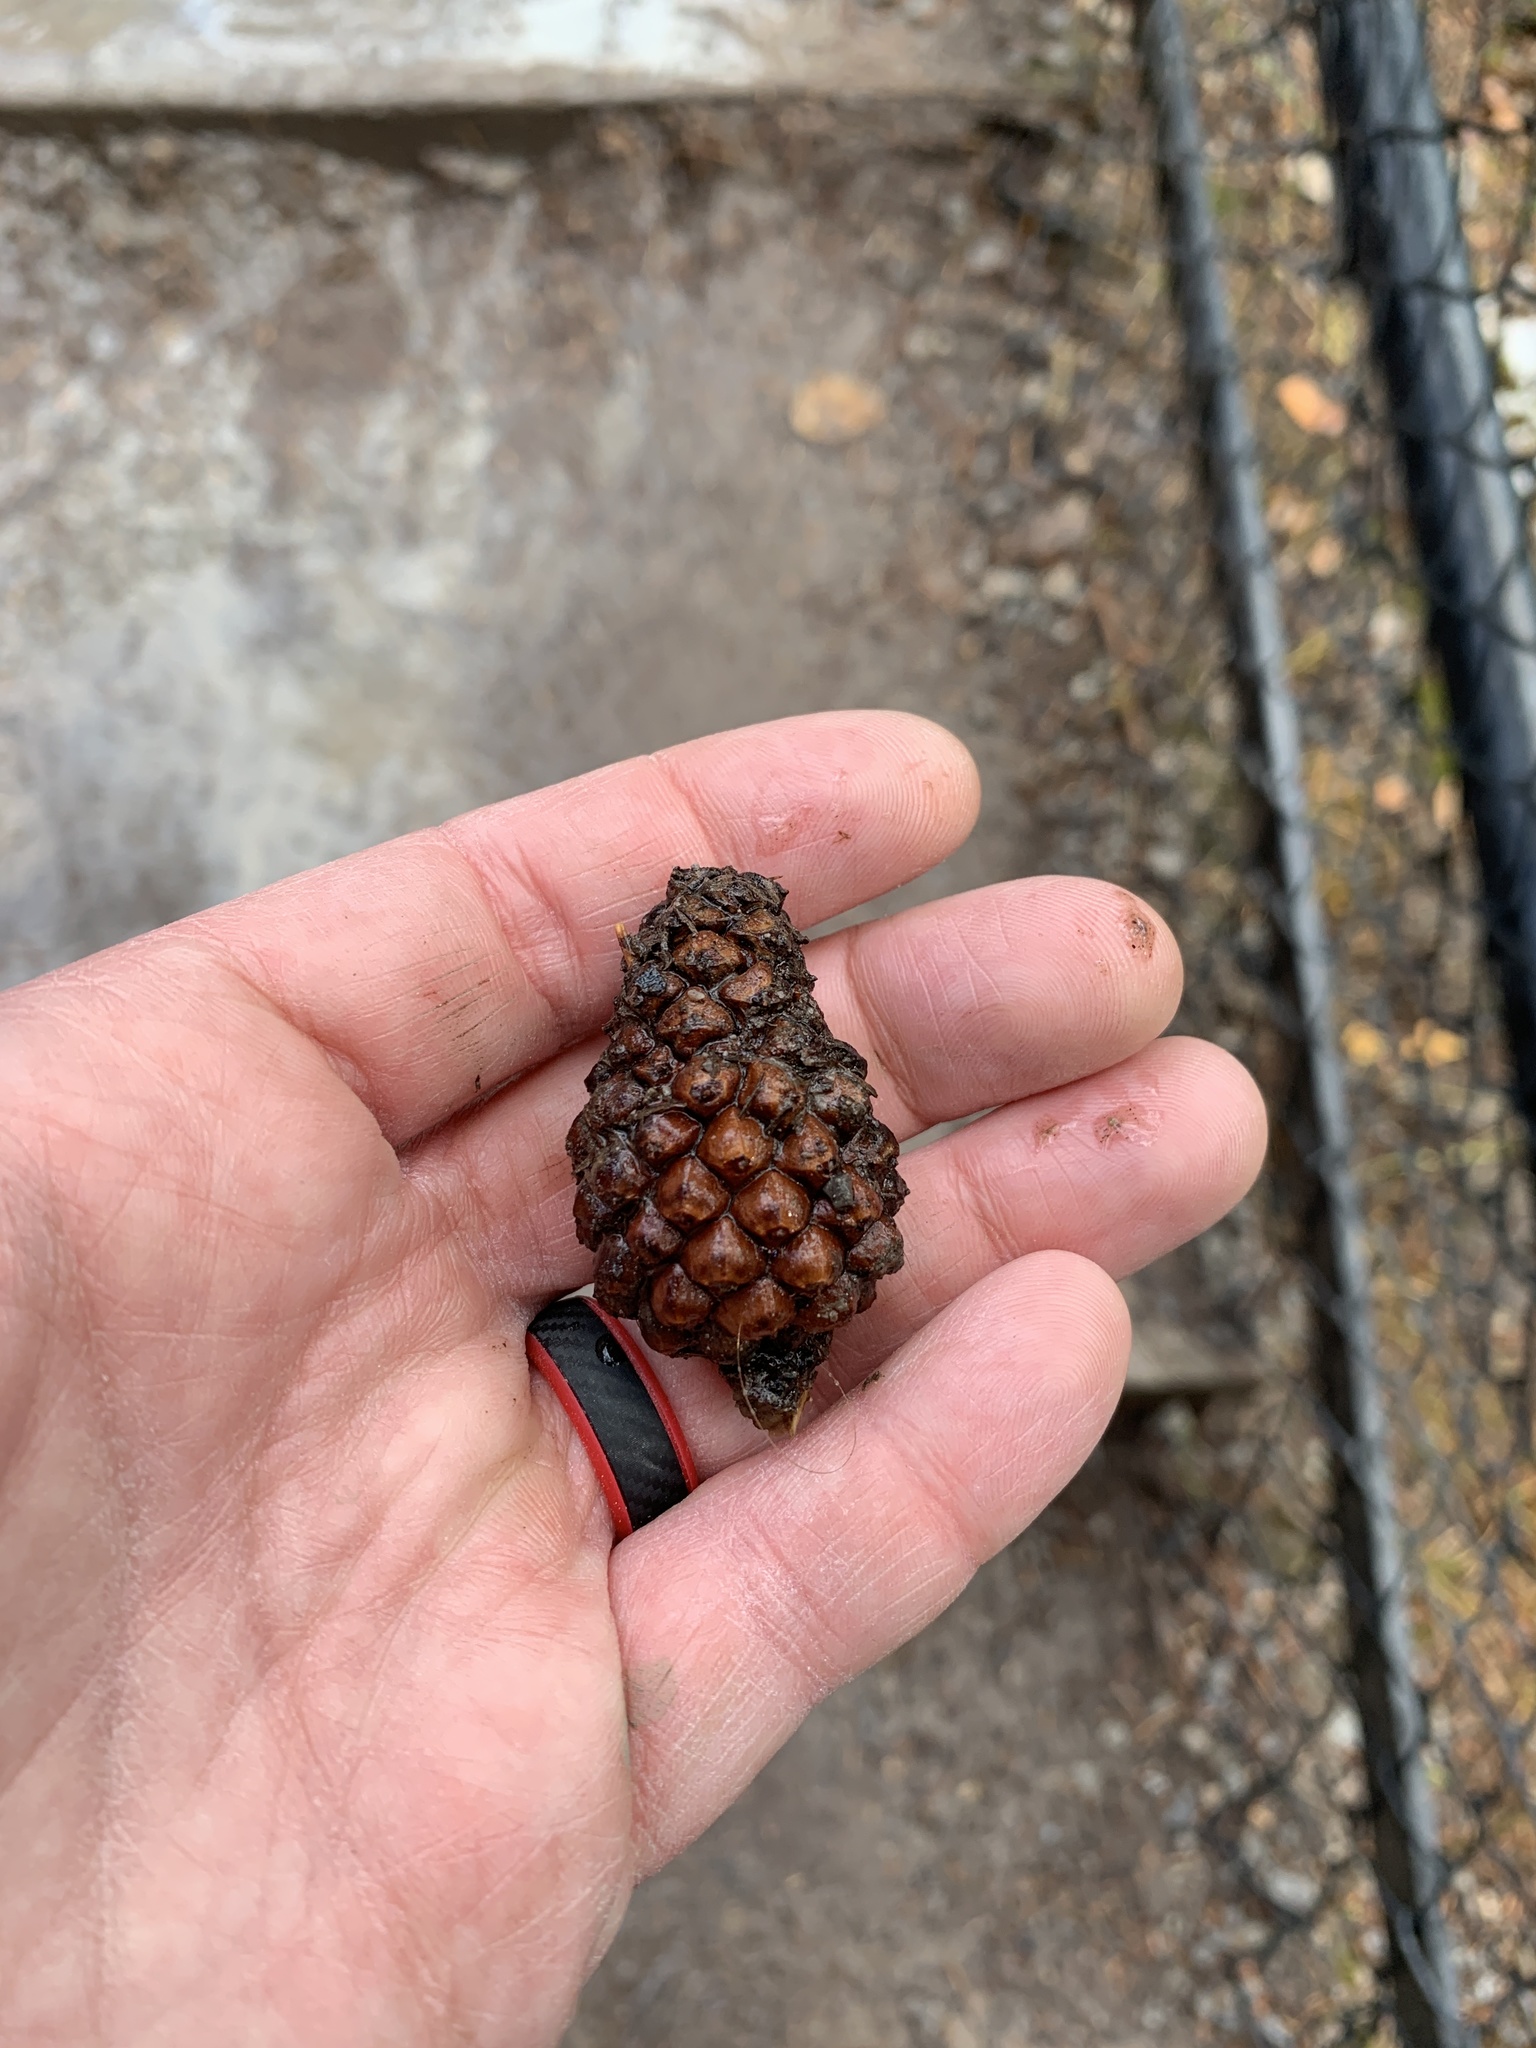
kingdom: Plantae
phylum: Tracheophyta
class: Pinopsida
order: Pinales
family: Pinaceae
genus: Pinus
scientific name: Pinus contorta
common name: Lodgepole pine
